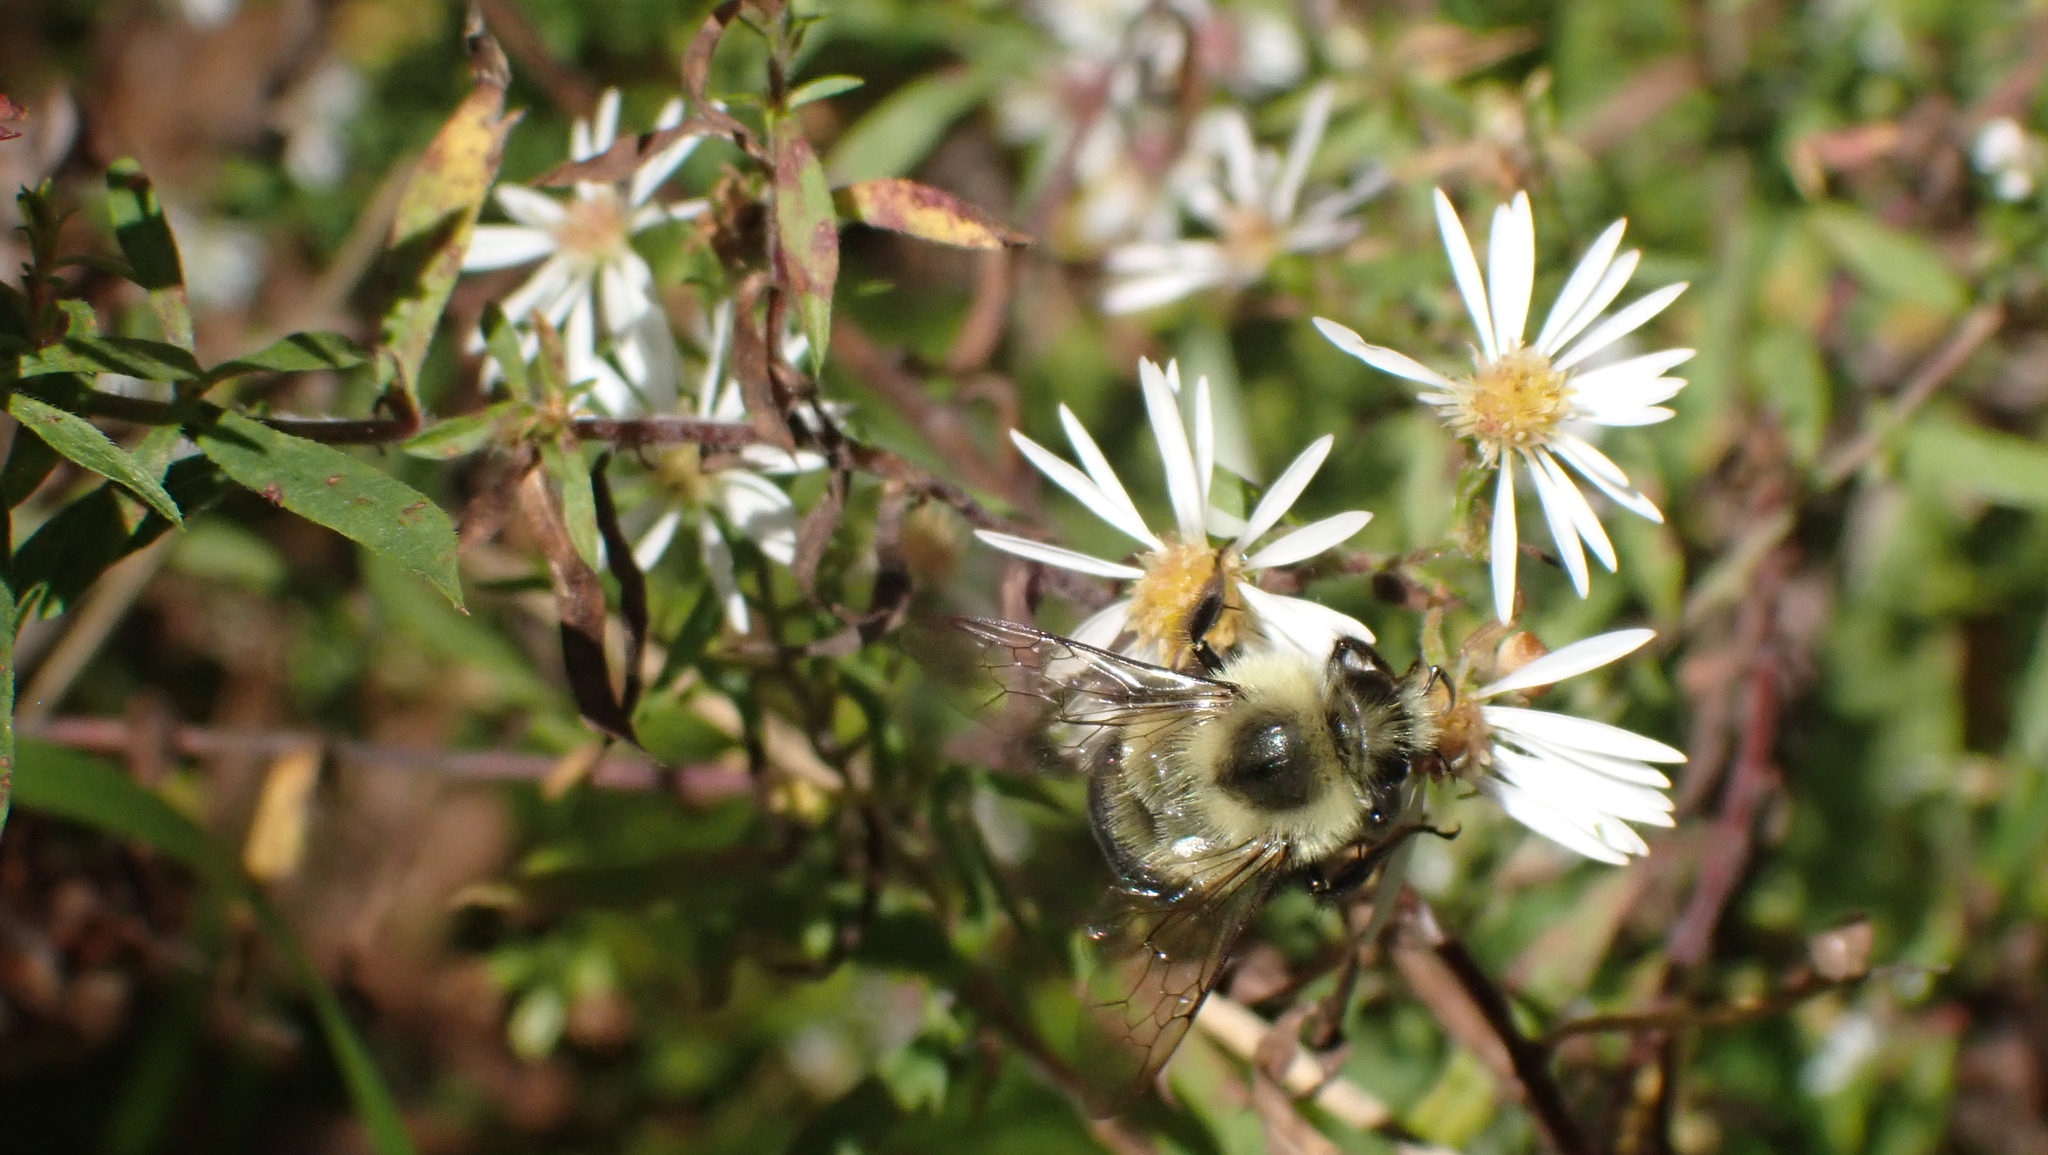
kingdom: Animalia
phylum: Arthropoda
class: Insecta
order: Hymenoptera
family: Apidae
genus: Bombus
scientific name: Bombus impatiens
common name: Common eastern bumble bee
